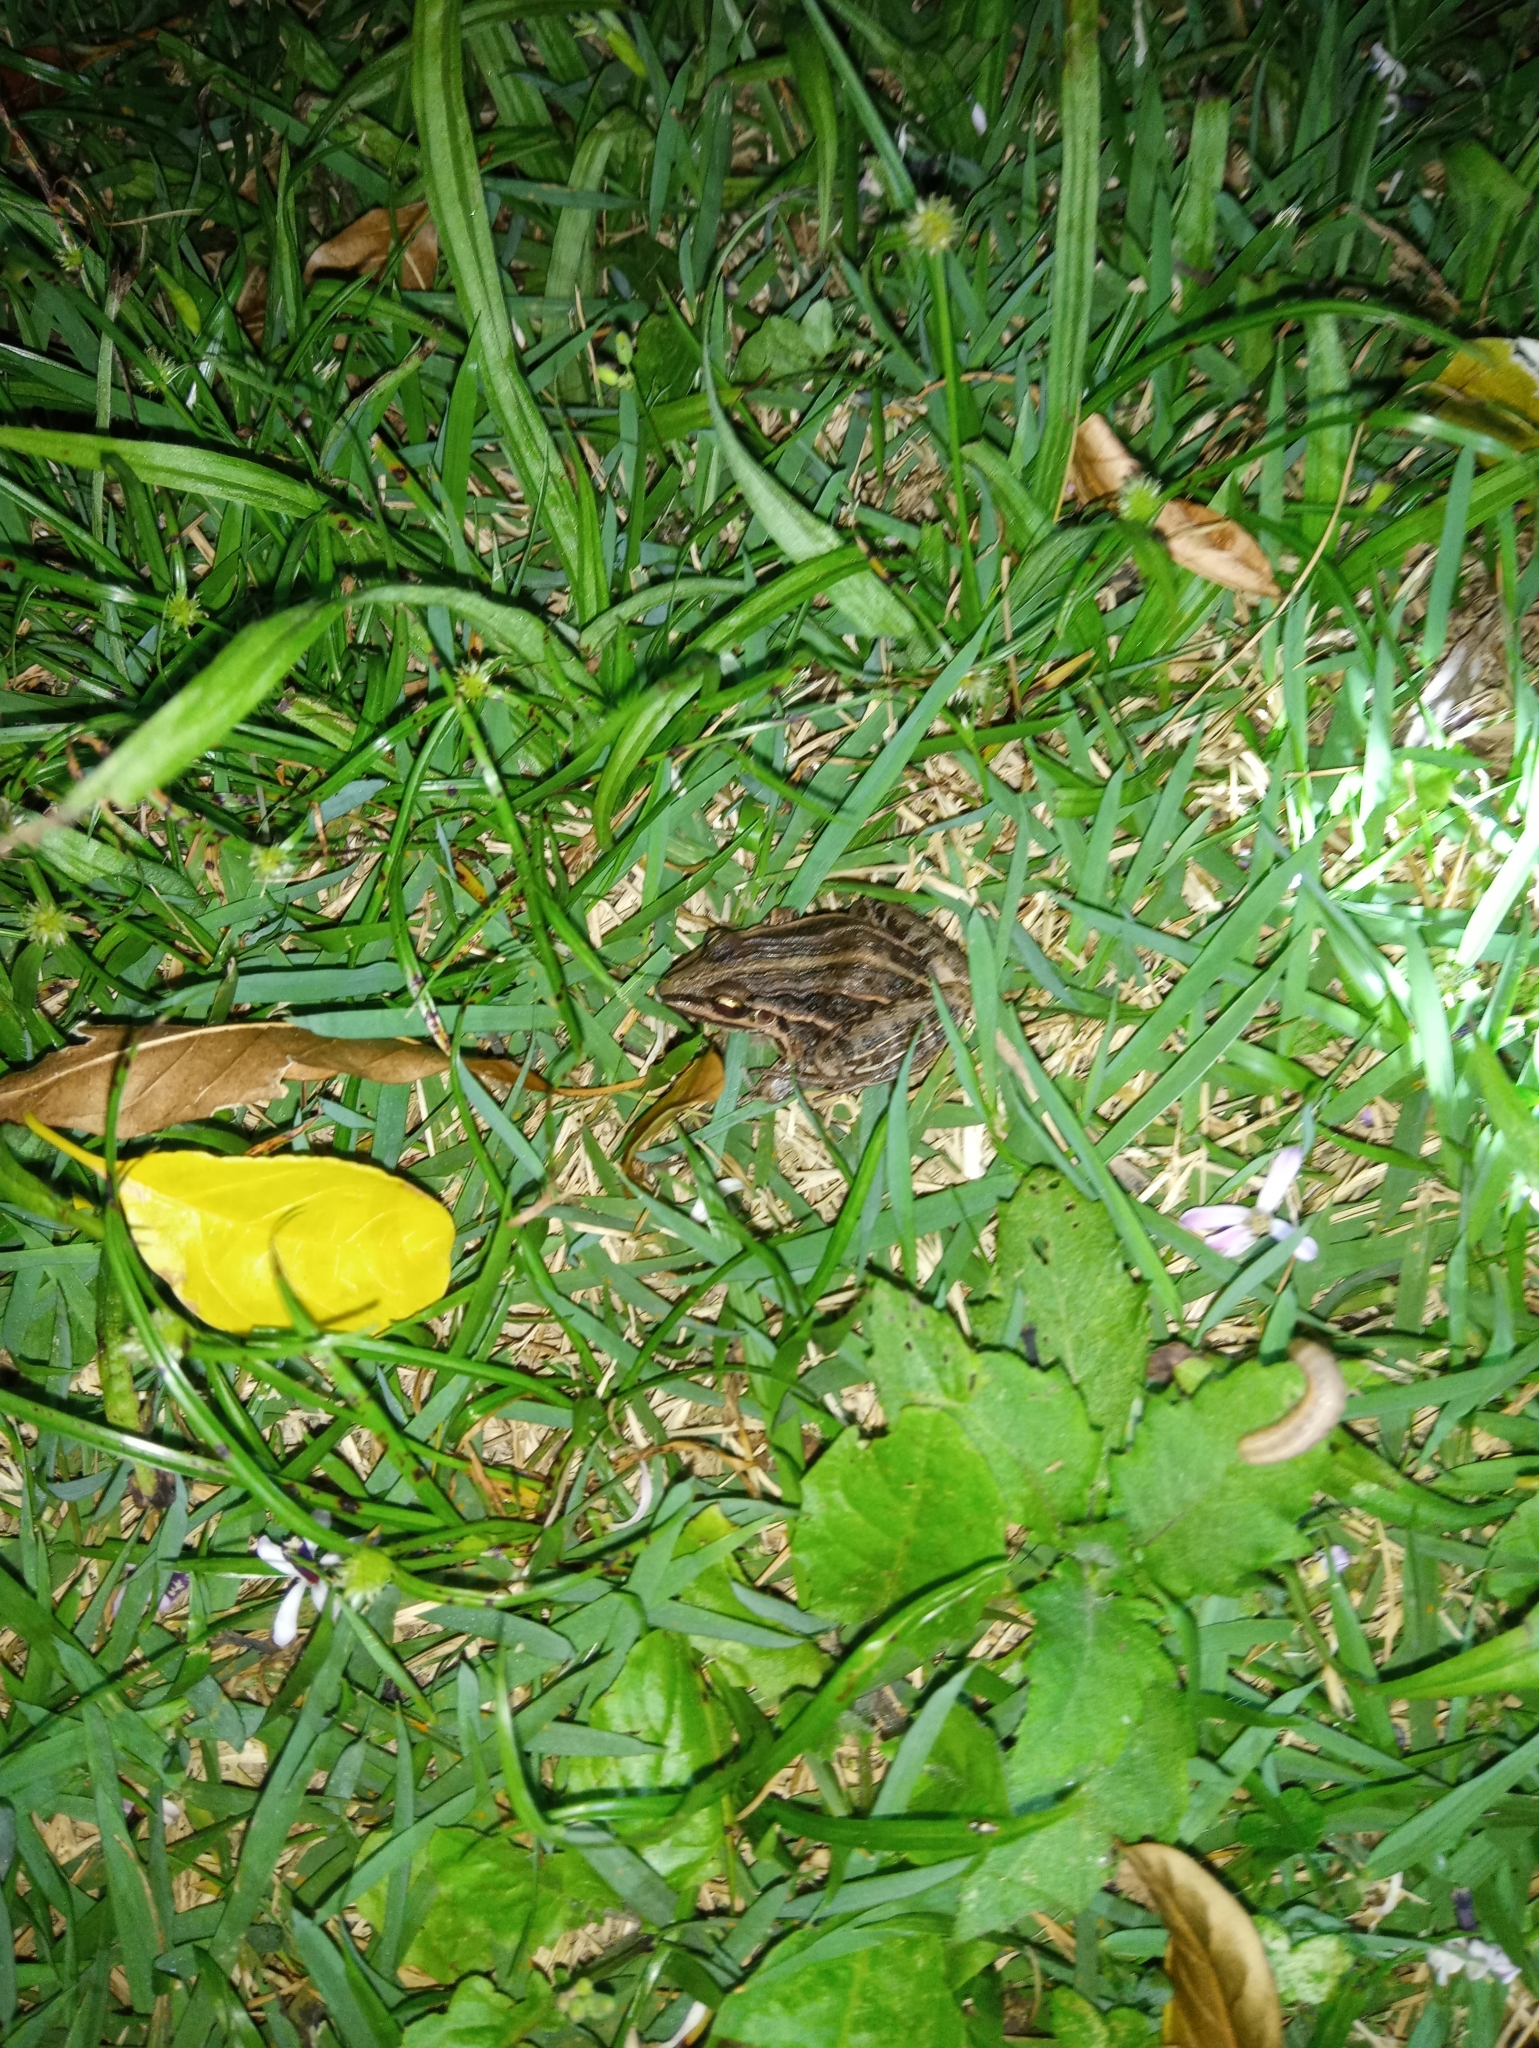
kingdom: Animalia
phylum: Chordata
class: Amphibia
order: Anura
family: Leptodactylidae
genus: Leptodactylus
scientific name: Leptodactylus gracilis
